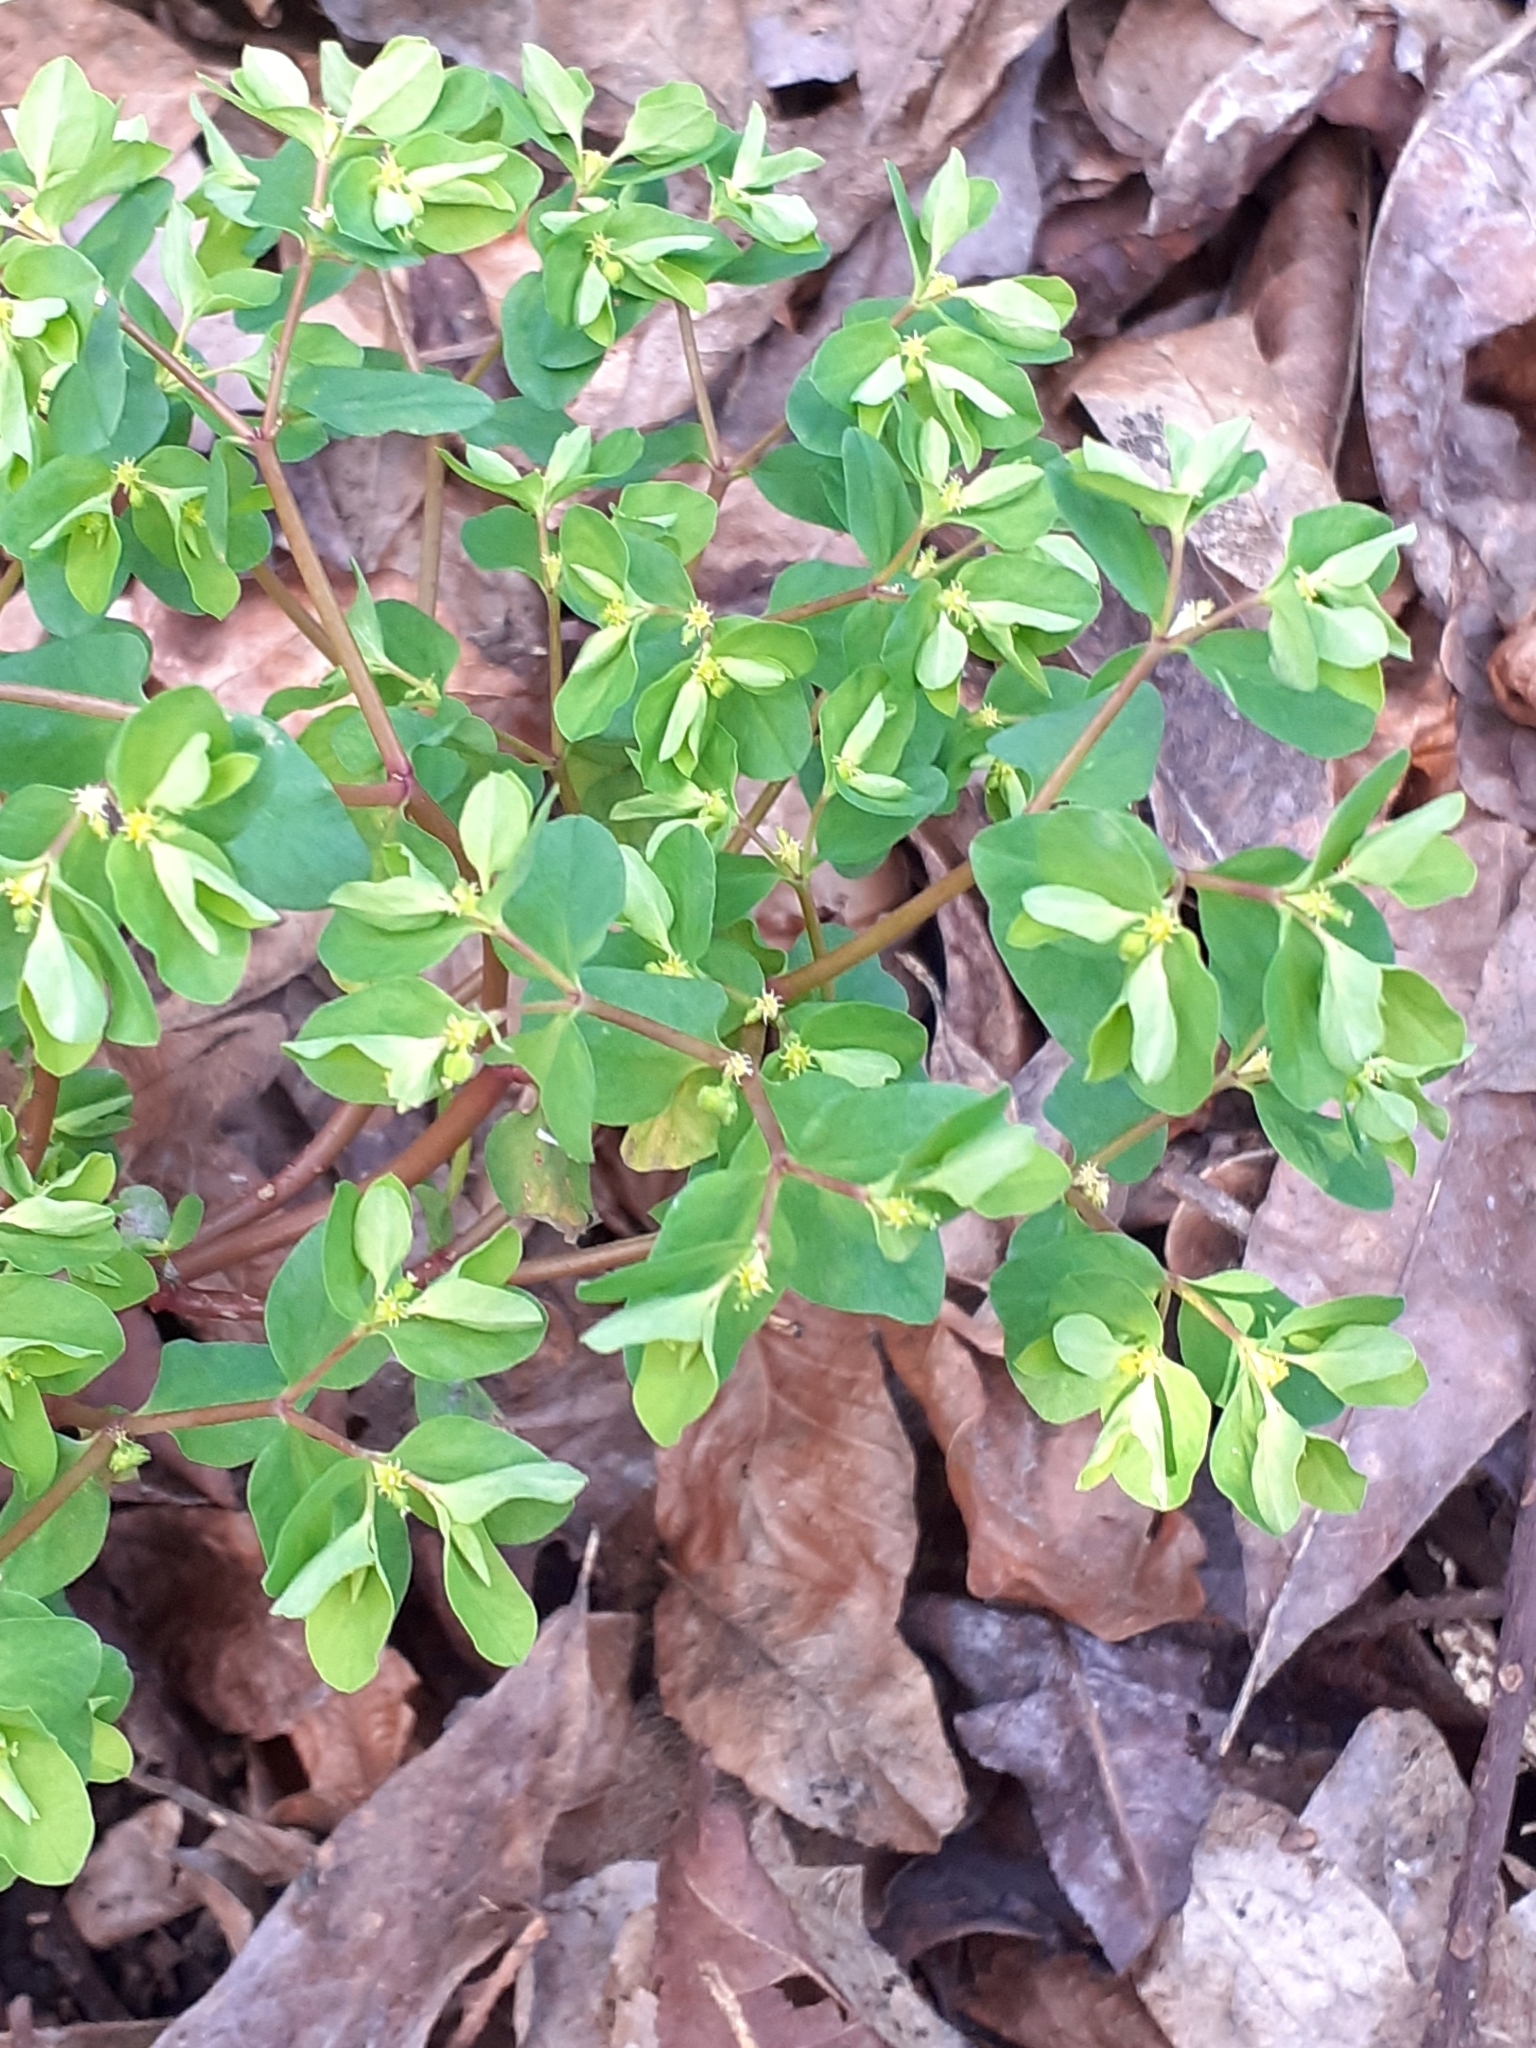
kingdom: Plantae
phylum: Tracheophyta
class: Magnoliopsida
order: Malpighiales
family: Euphorbiaceae
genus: Euphorbia
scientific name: Euphorbia peplus
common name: Petty spurge
